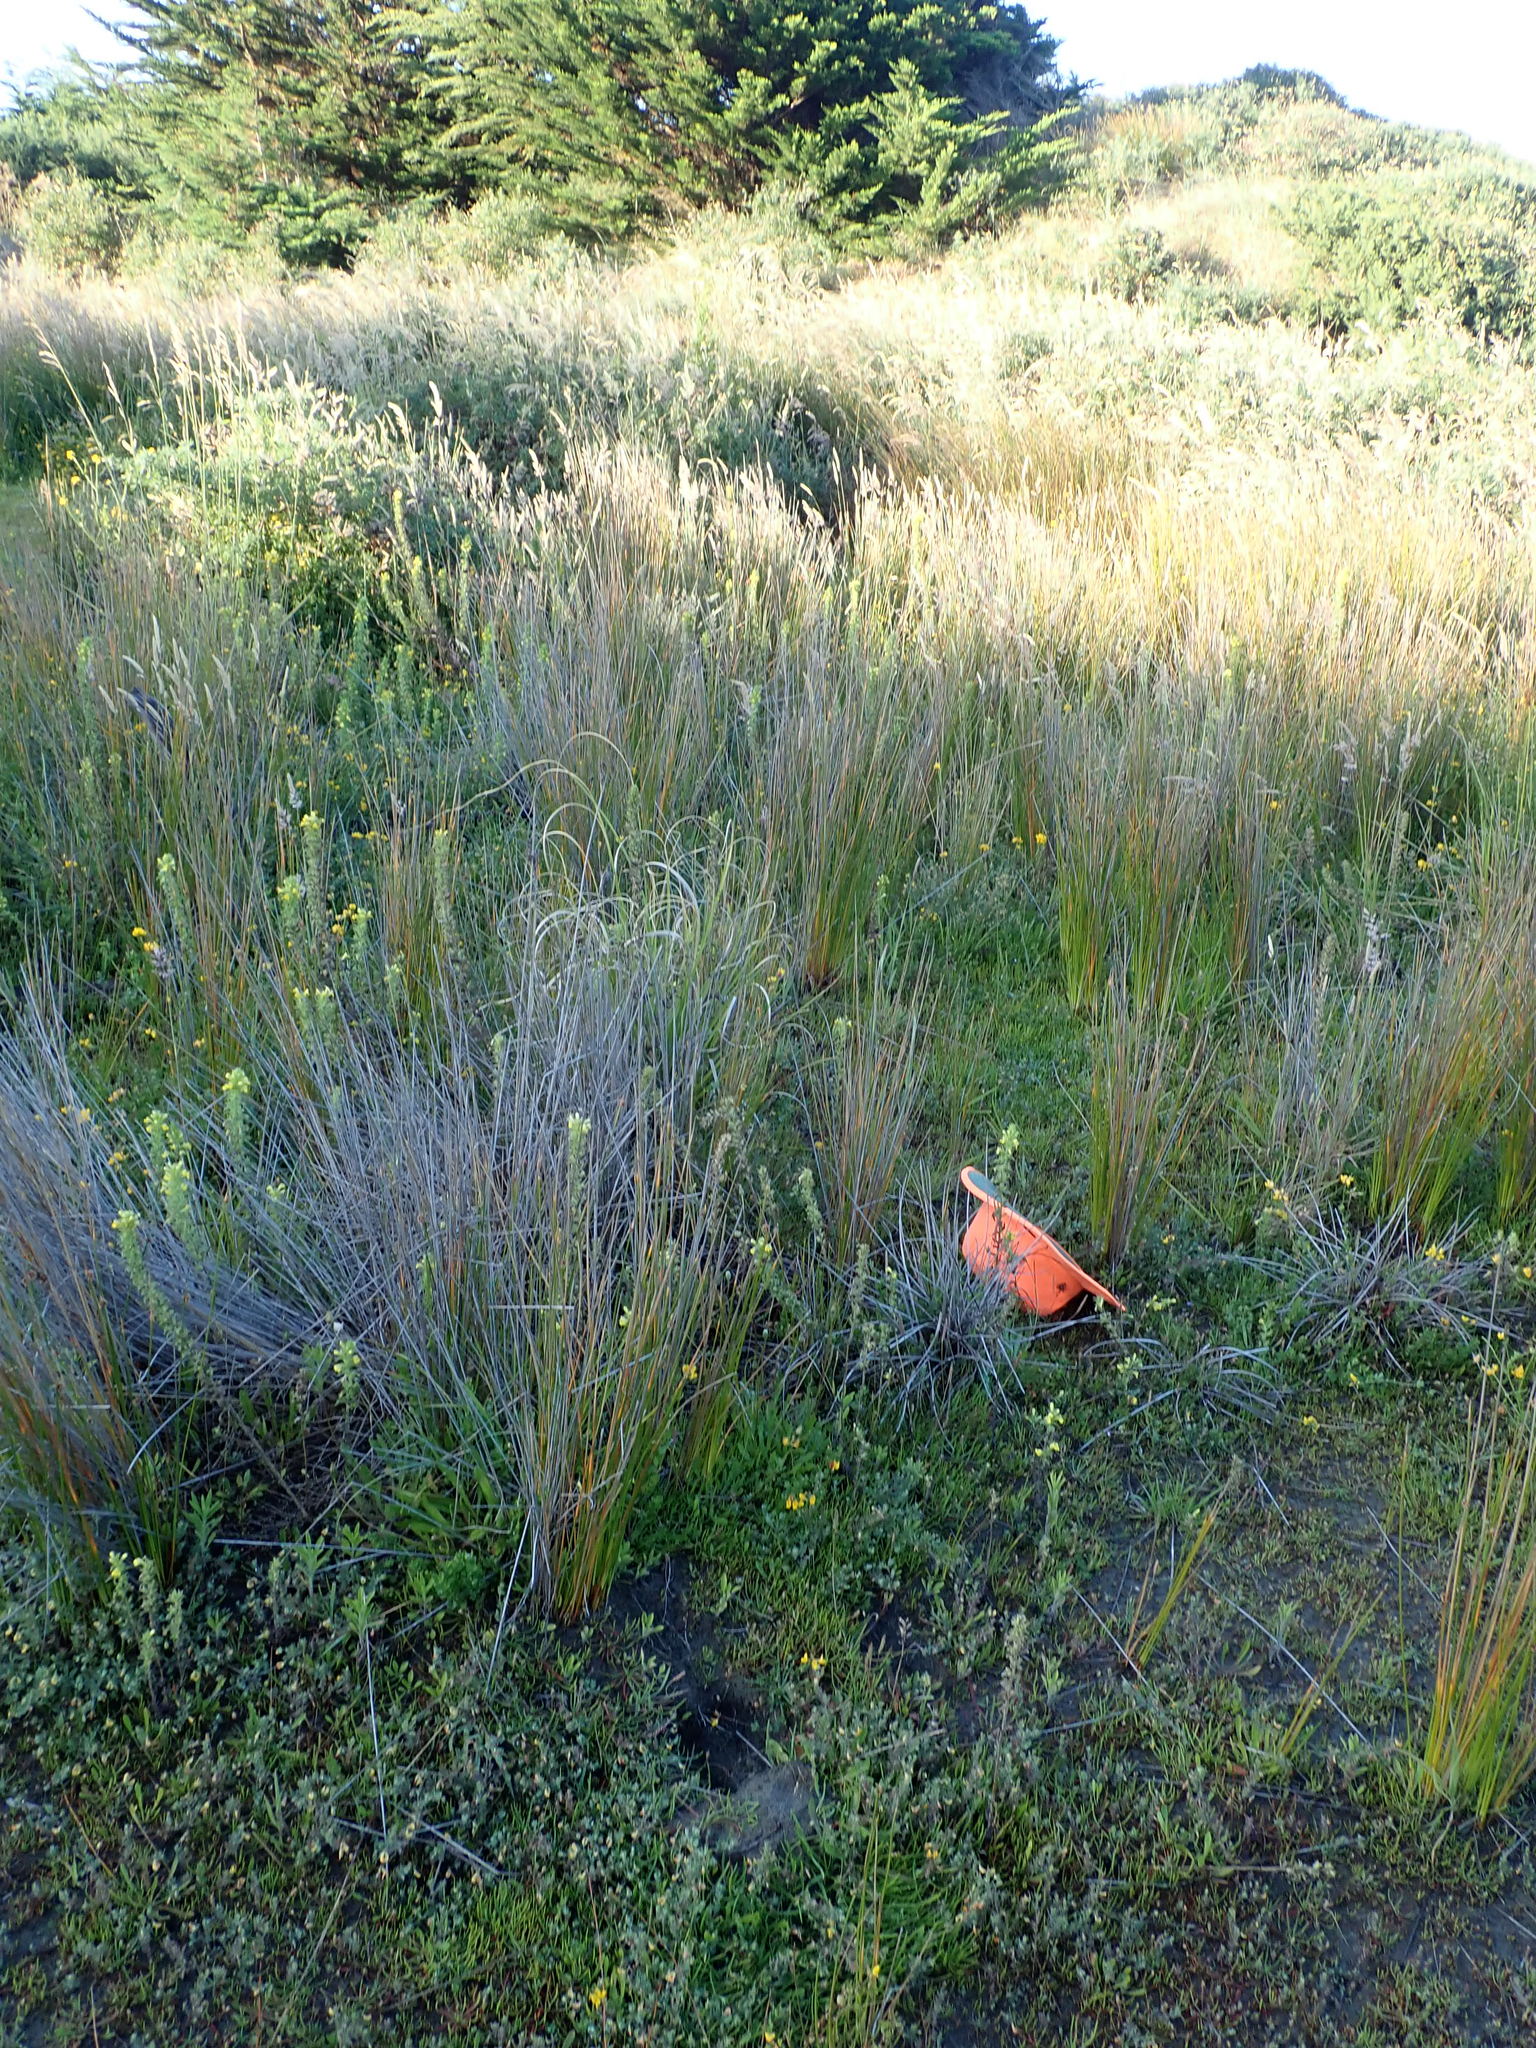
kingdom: Plantae
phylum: Tracheophyta
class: Magnoliopsida
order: Lamiales
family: Orobanchaceae
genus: Bellardia
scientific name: Bellardia viscosa
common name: Sticky parentucellia
